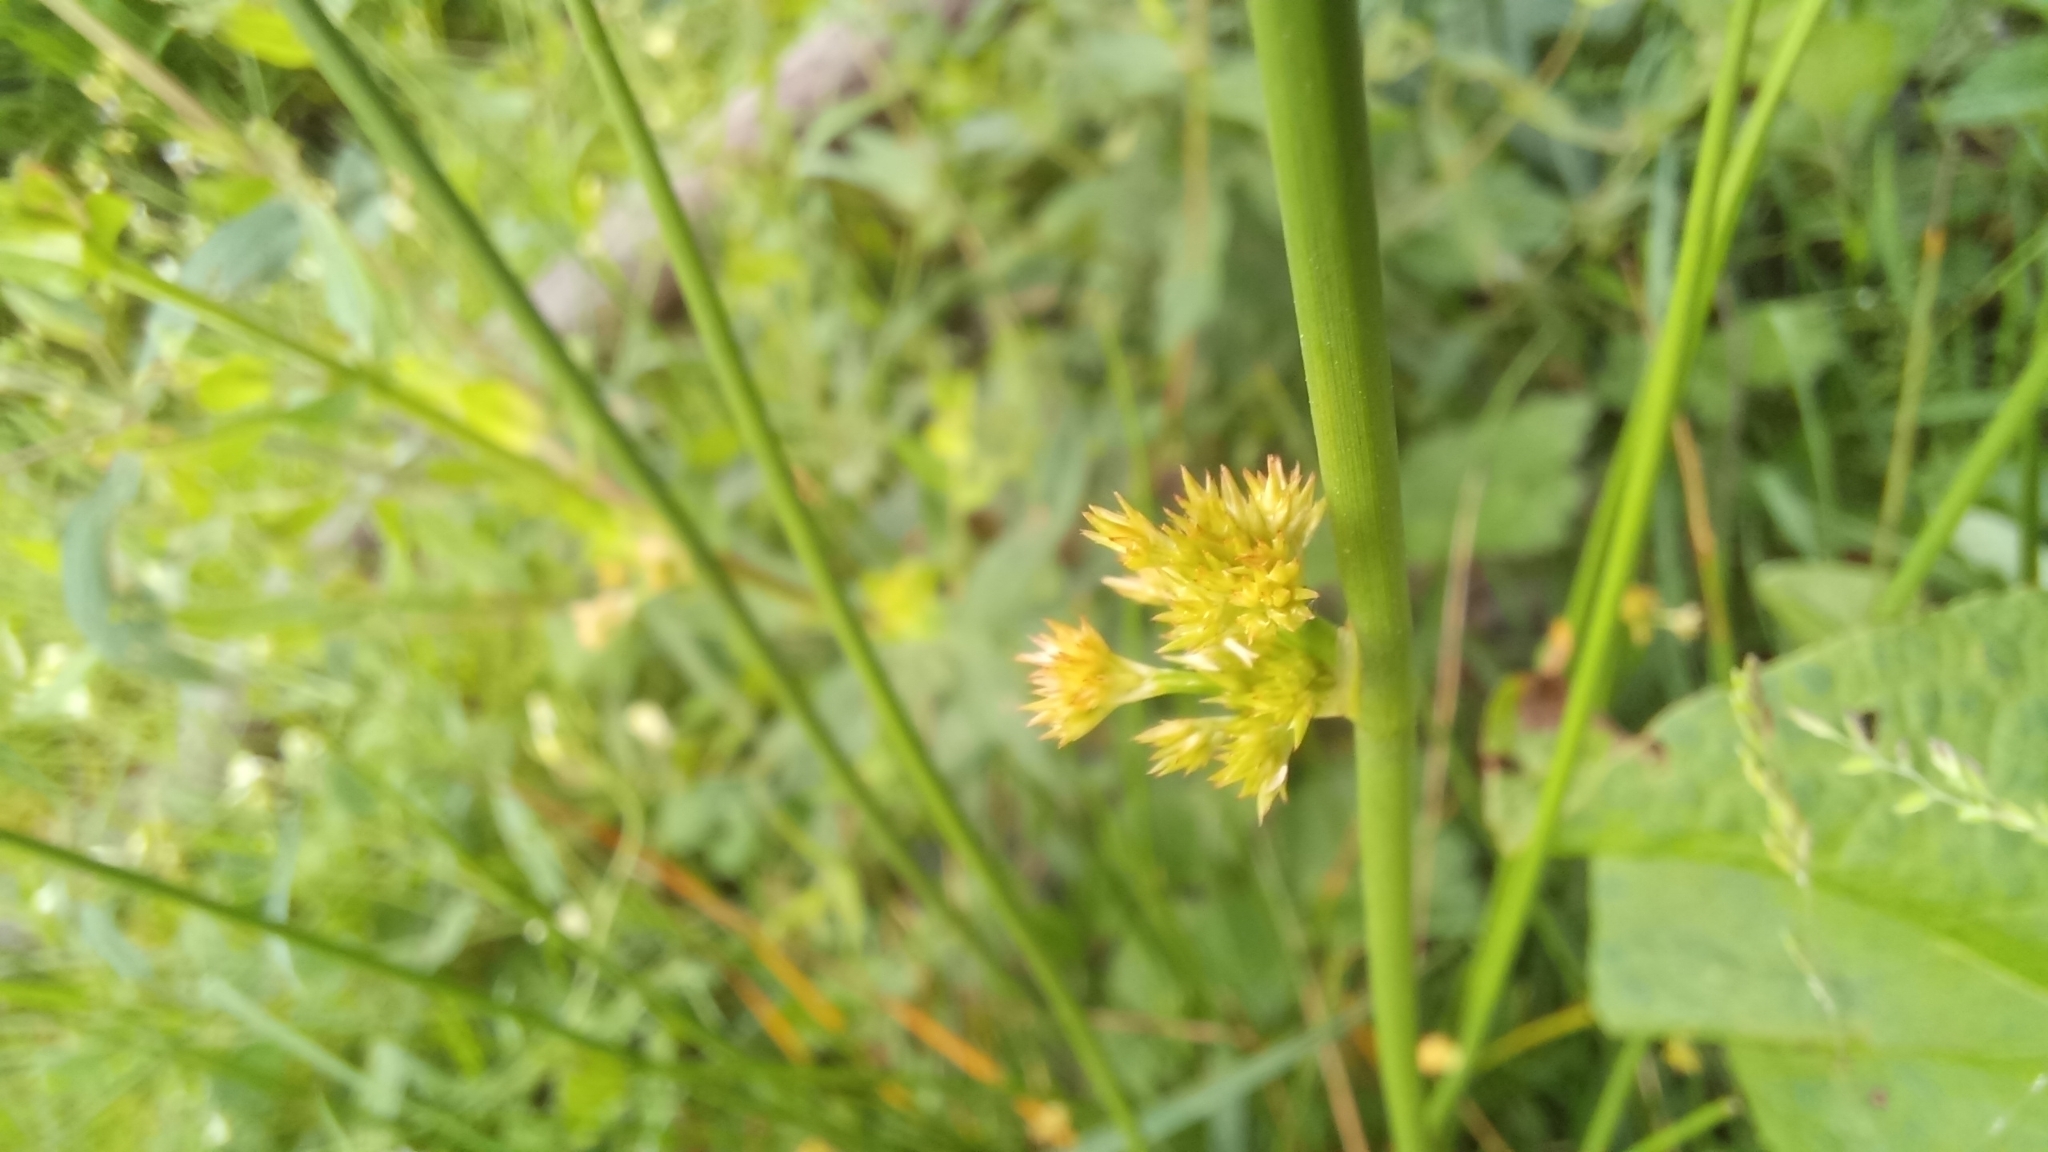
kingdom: Plantae
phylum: Tracheophyta
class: Liliopsida
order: Poales
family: Juncaceae
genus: Juncus
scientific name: Juncus effusus
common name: Soft rush
